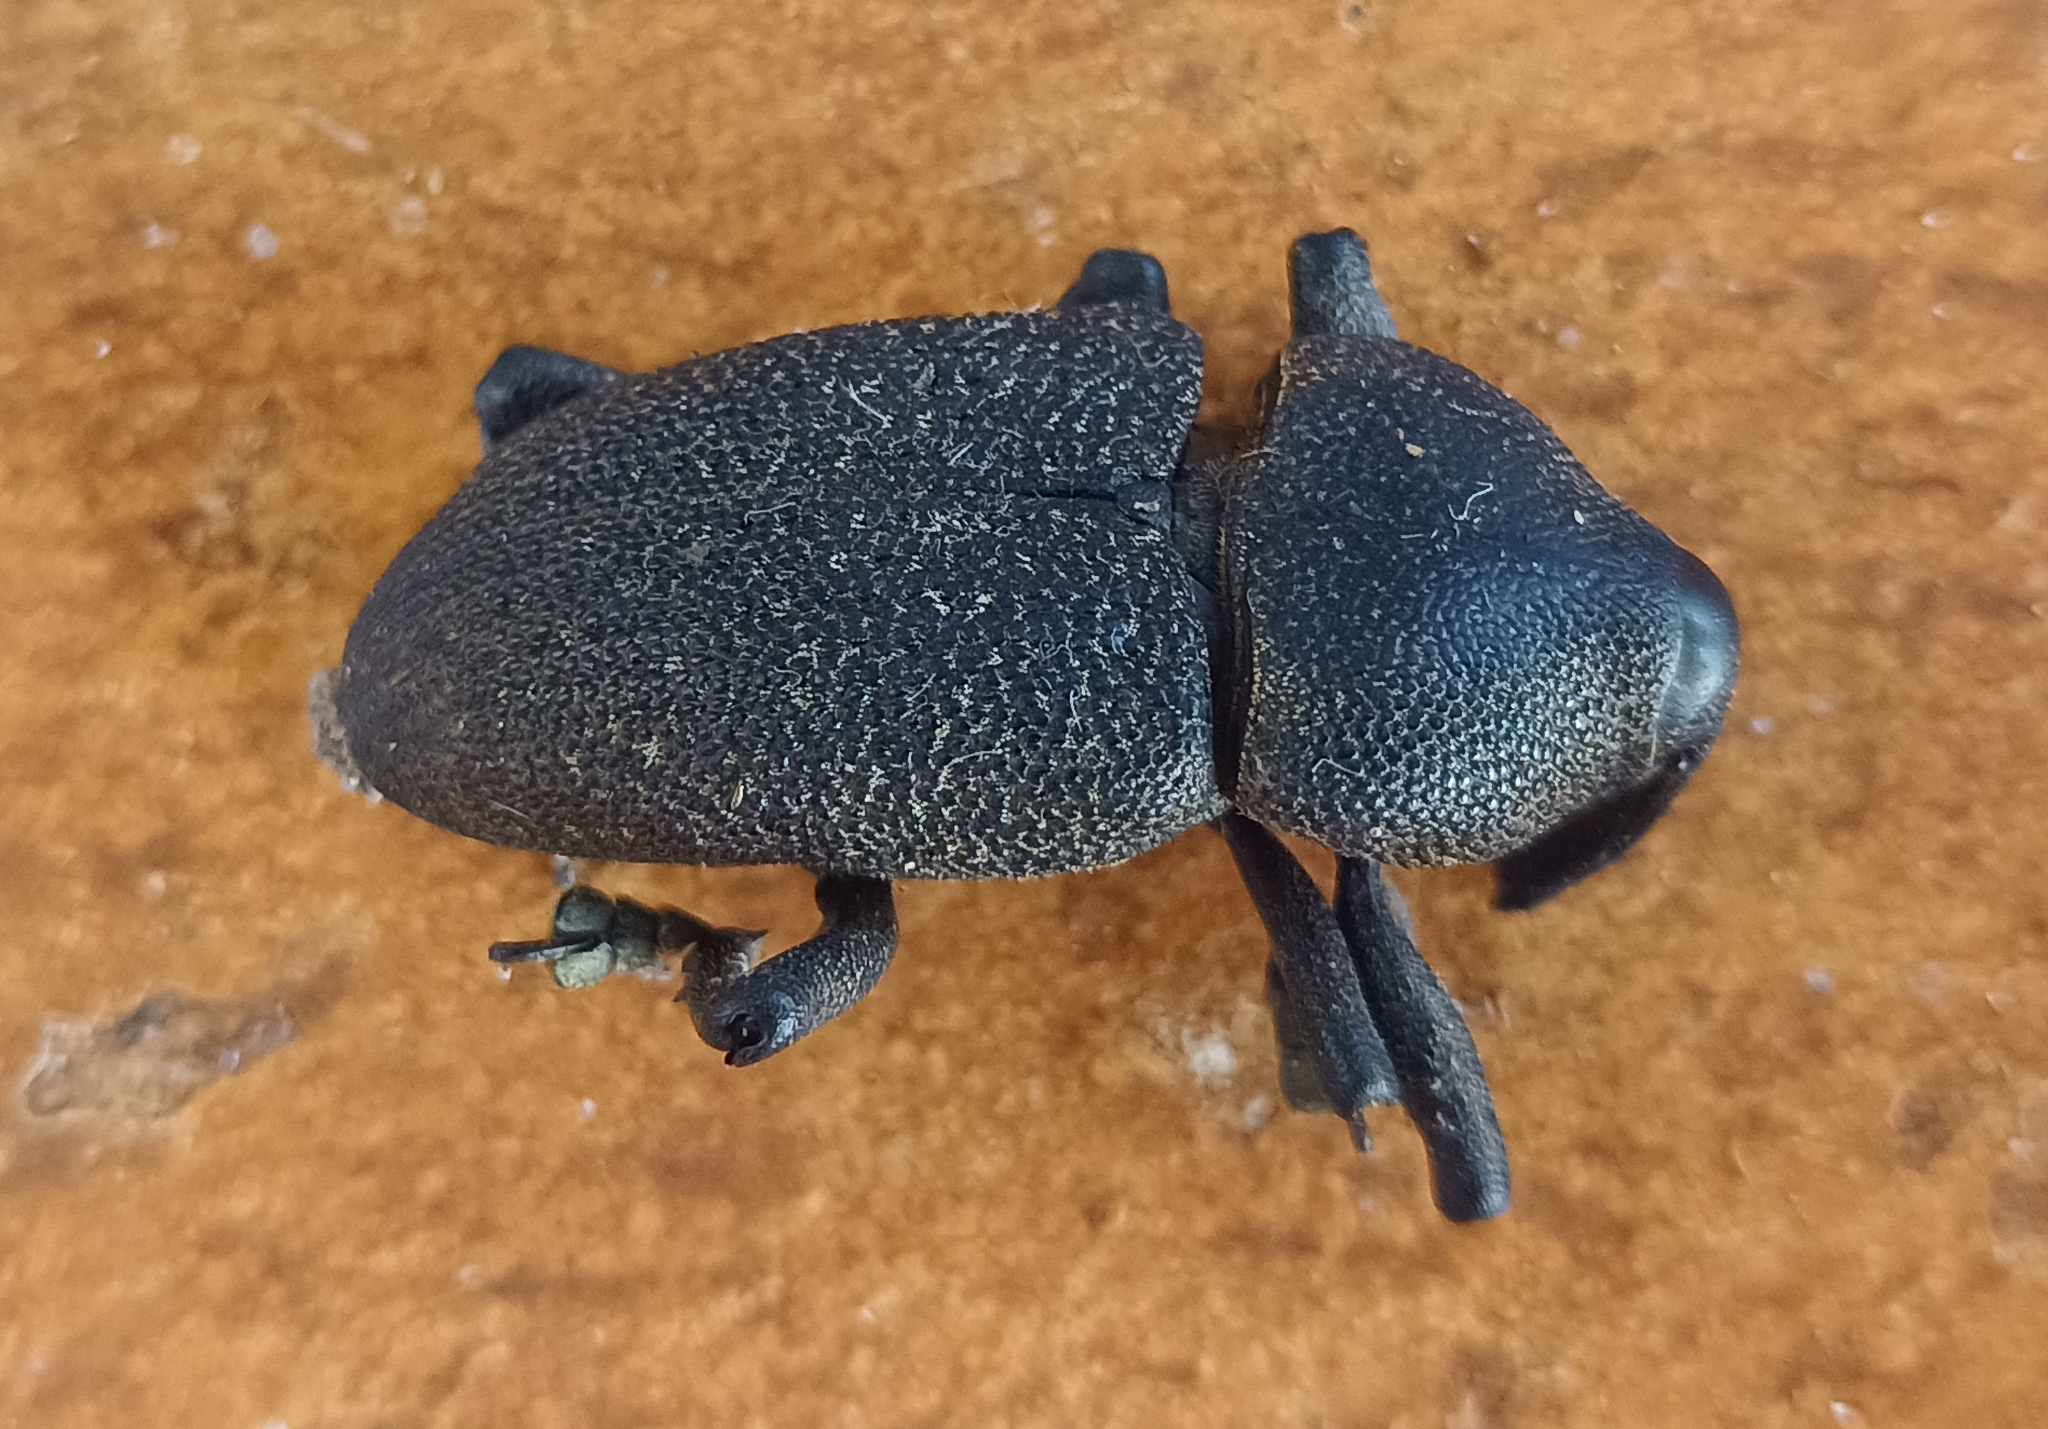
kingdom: Animalia
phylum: Arthropoda
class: Insecta
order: Coleoptera
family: Curculionidae
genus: Homalinotus
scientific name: Homalinotus coriaceus
